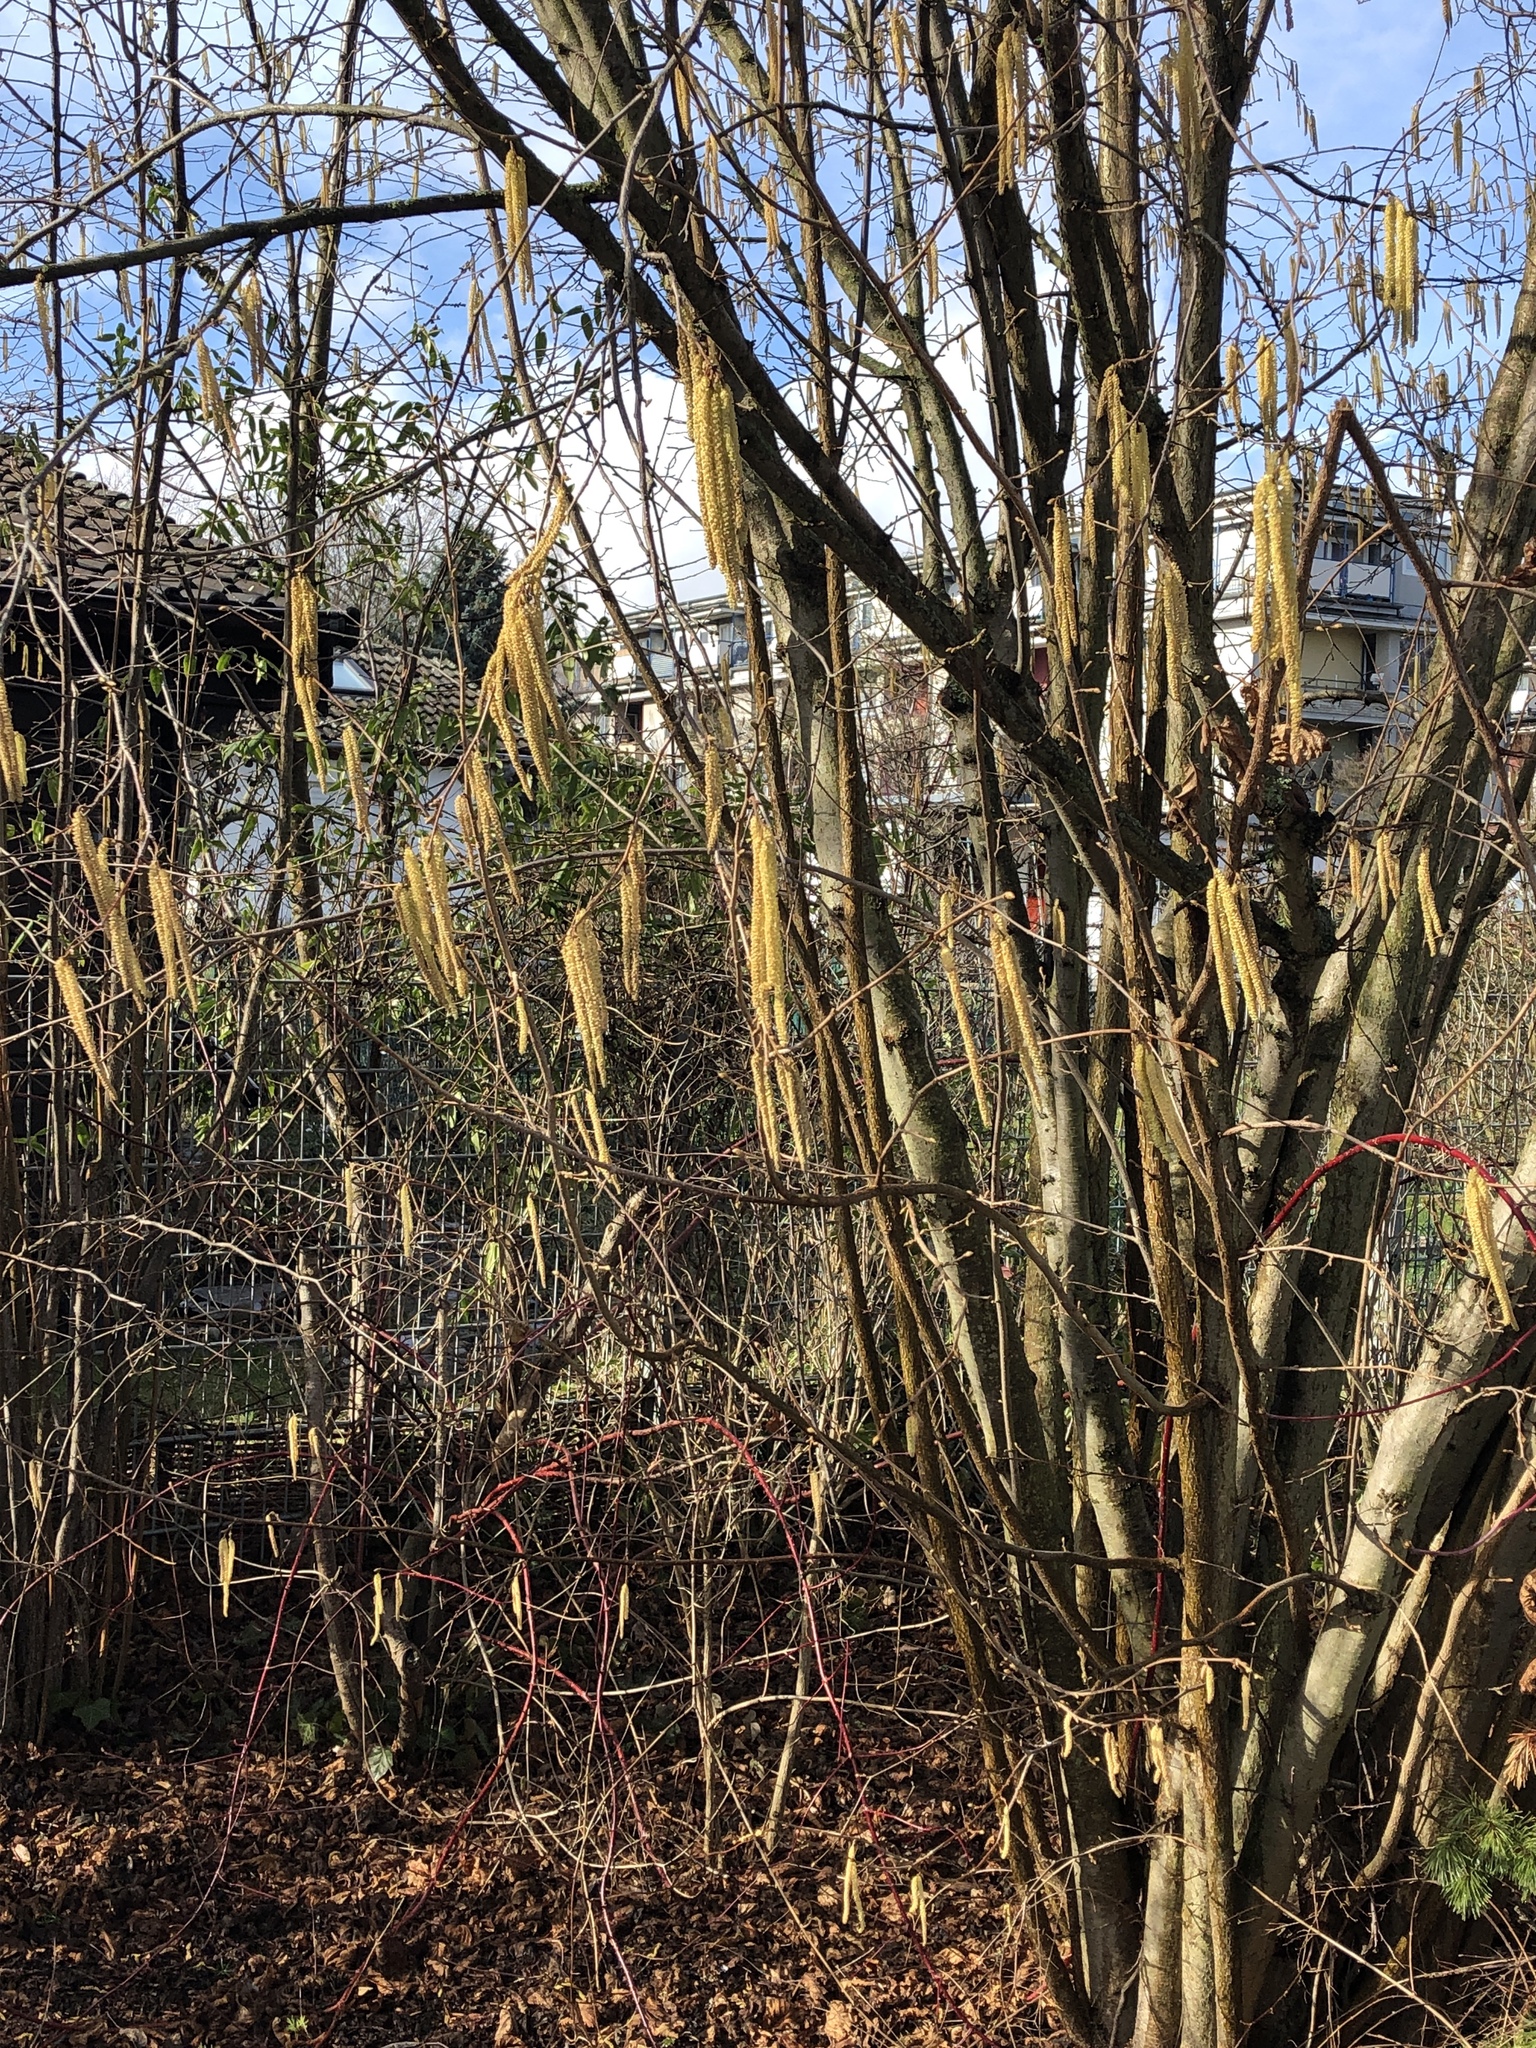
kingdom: Plantae
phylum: Tracheophyta
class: Magnoliopsida
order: Fagales
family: Betulaceae
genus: Corylus
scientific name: Corylus avellana
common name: European hazel
